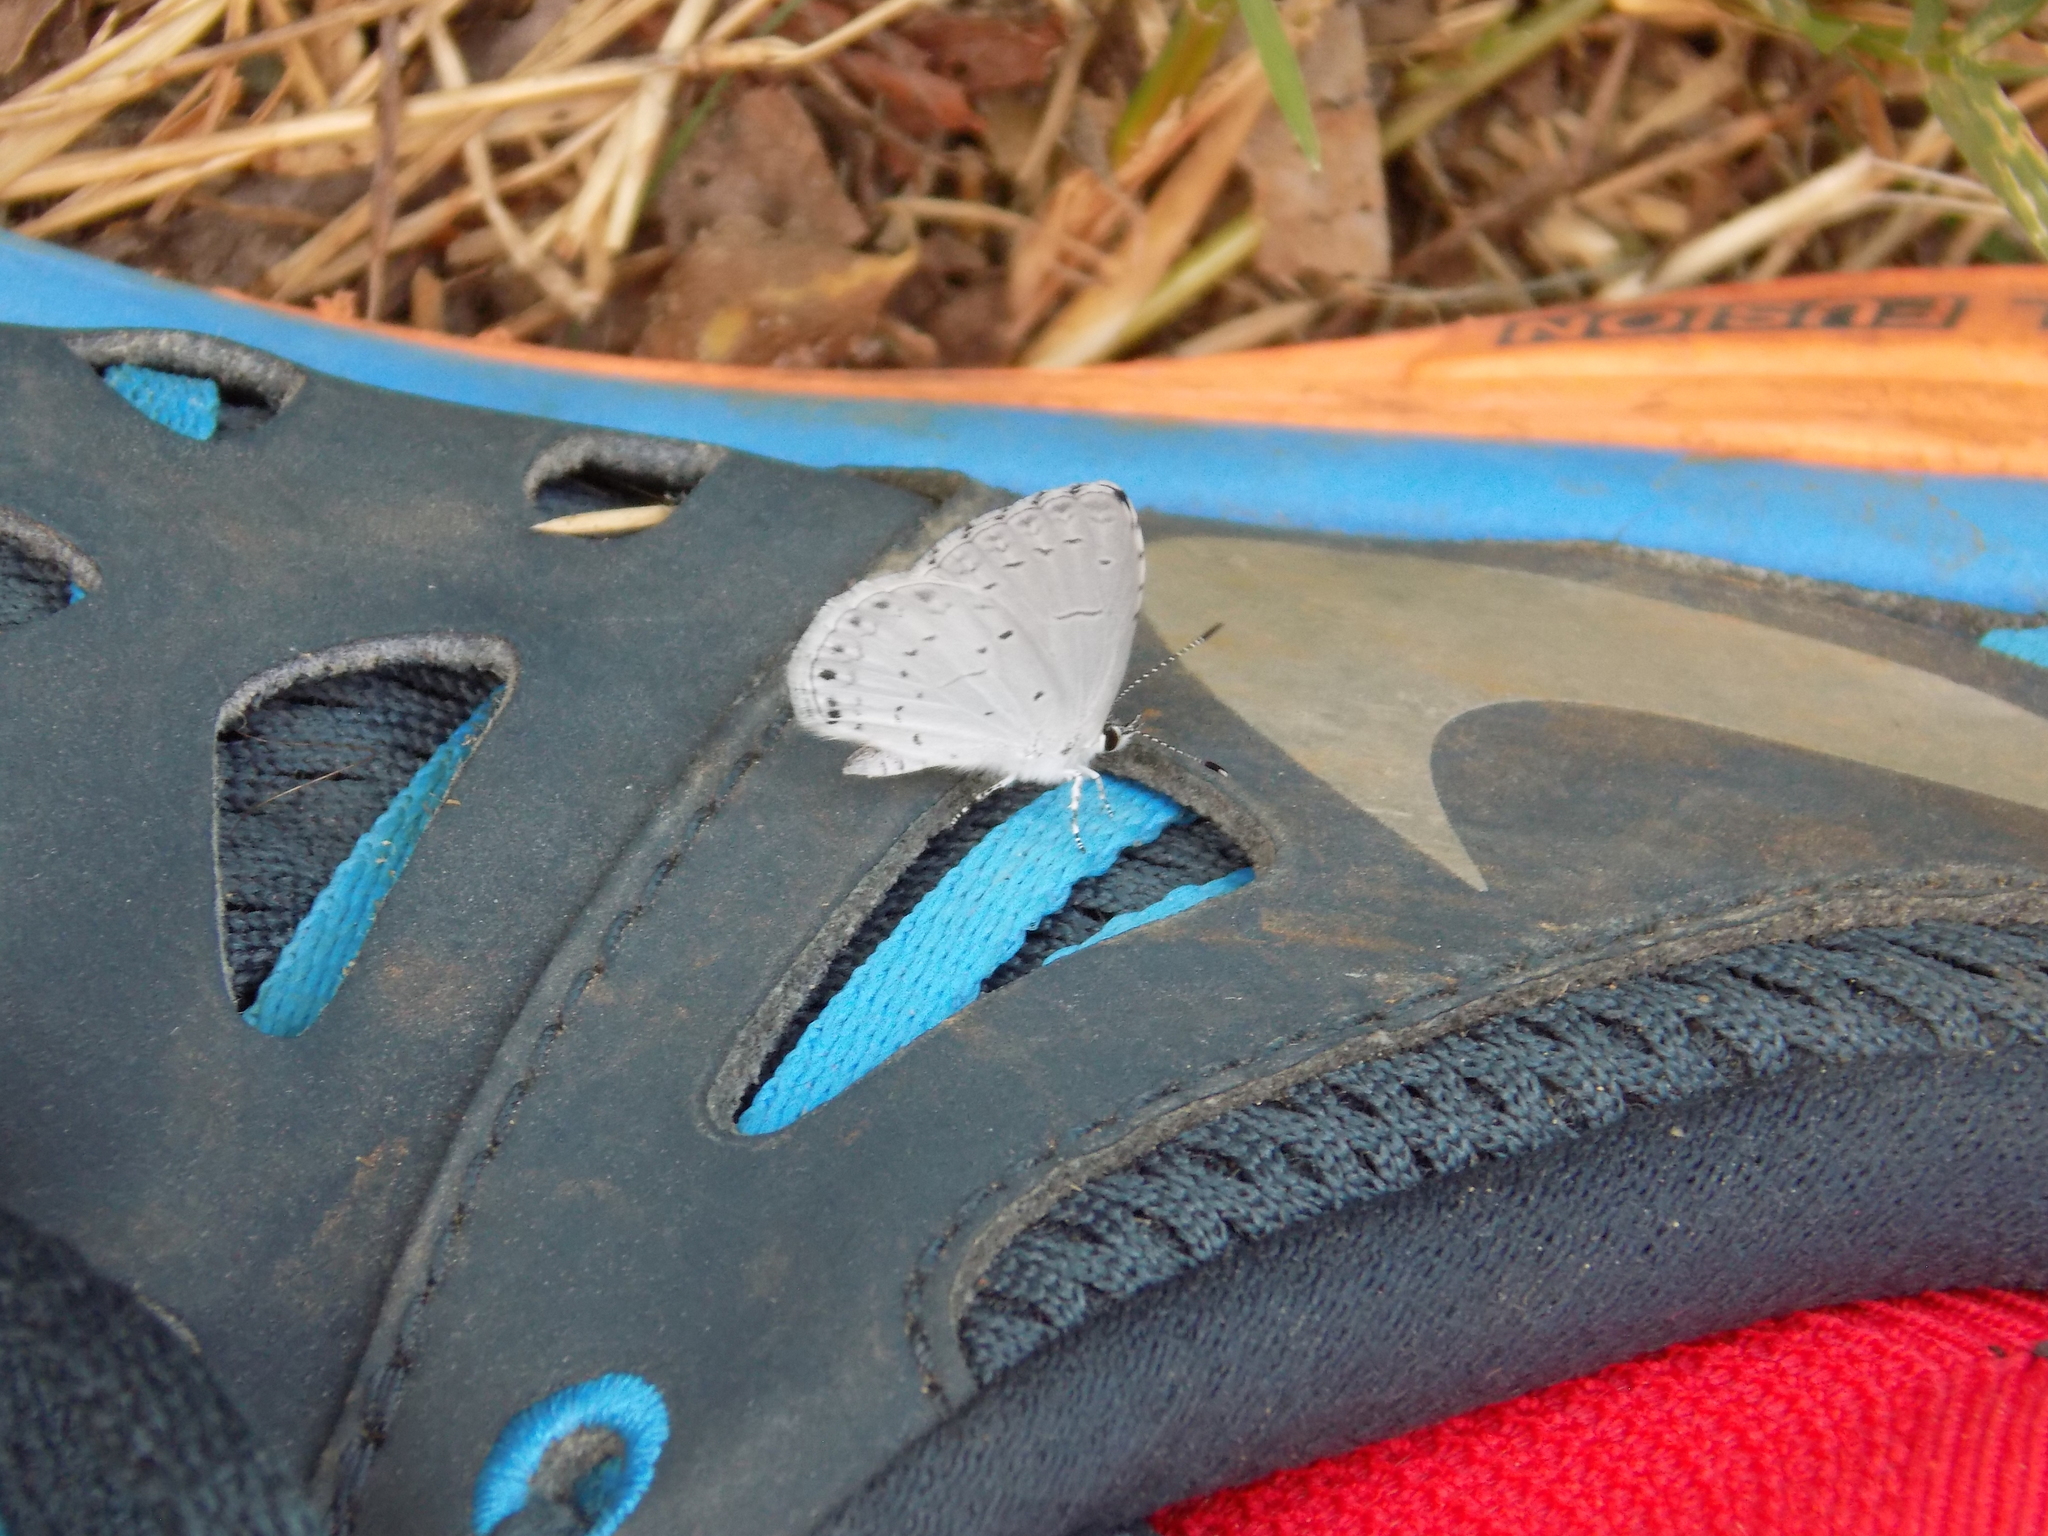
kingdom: Animalia
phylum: Arthropoda
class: Insecta
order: Lepidoptera
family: Lycaenidae
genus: Cyaniris
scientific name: Cyaniris neglecta
